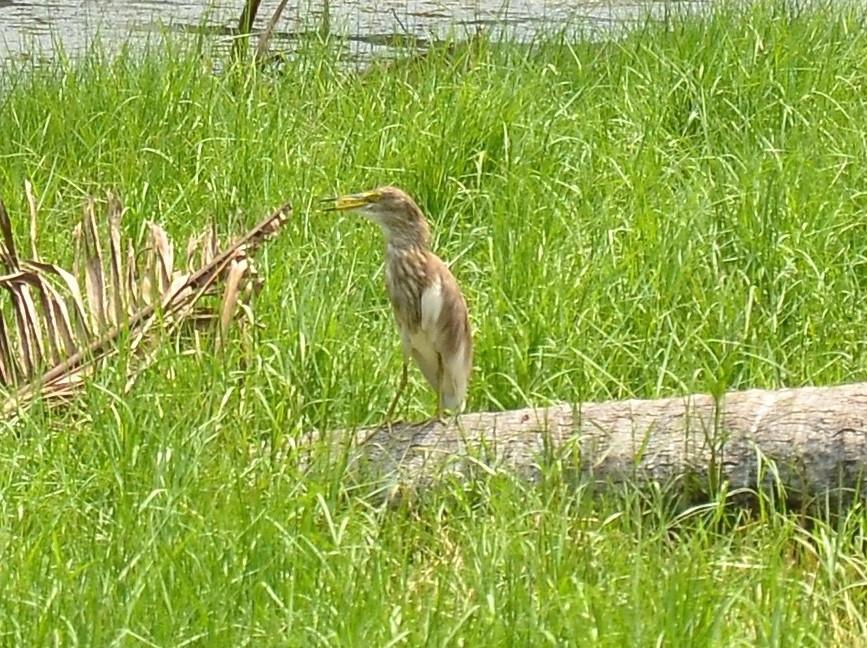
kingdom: Animalia
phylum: Chordata
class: Aves
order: Pelecaniformes
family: Ardeidae
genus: Ardeola
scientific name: Ardeola grayii
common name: Indian pond heron
